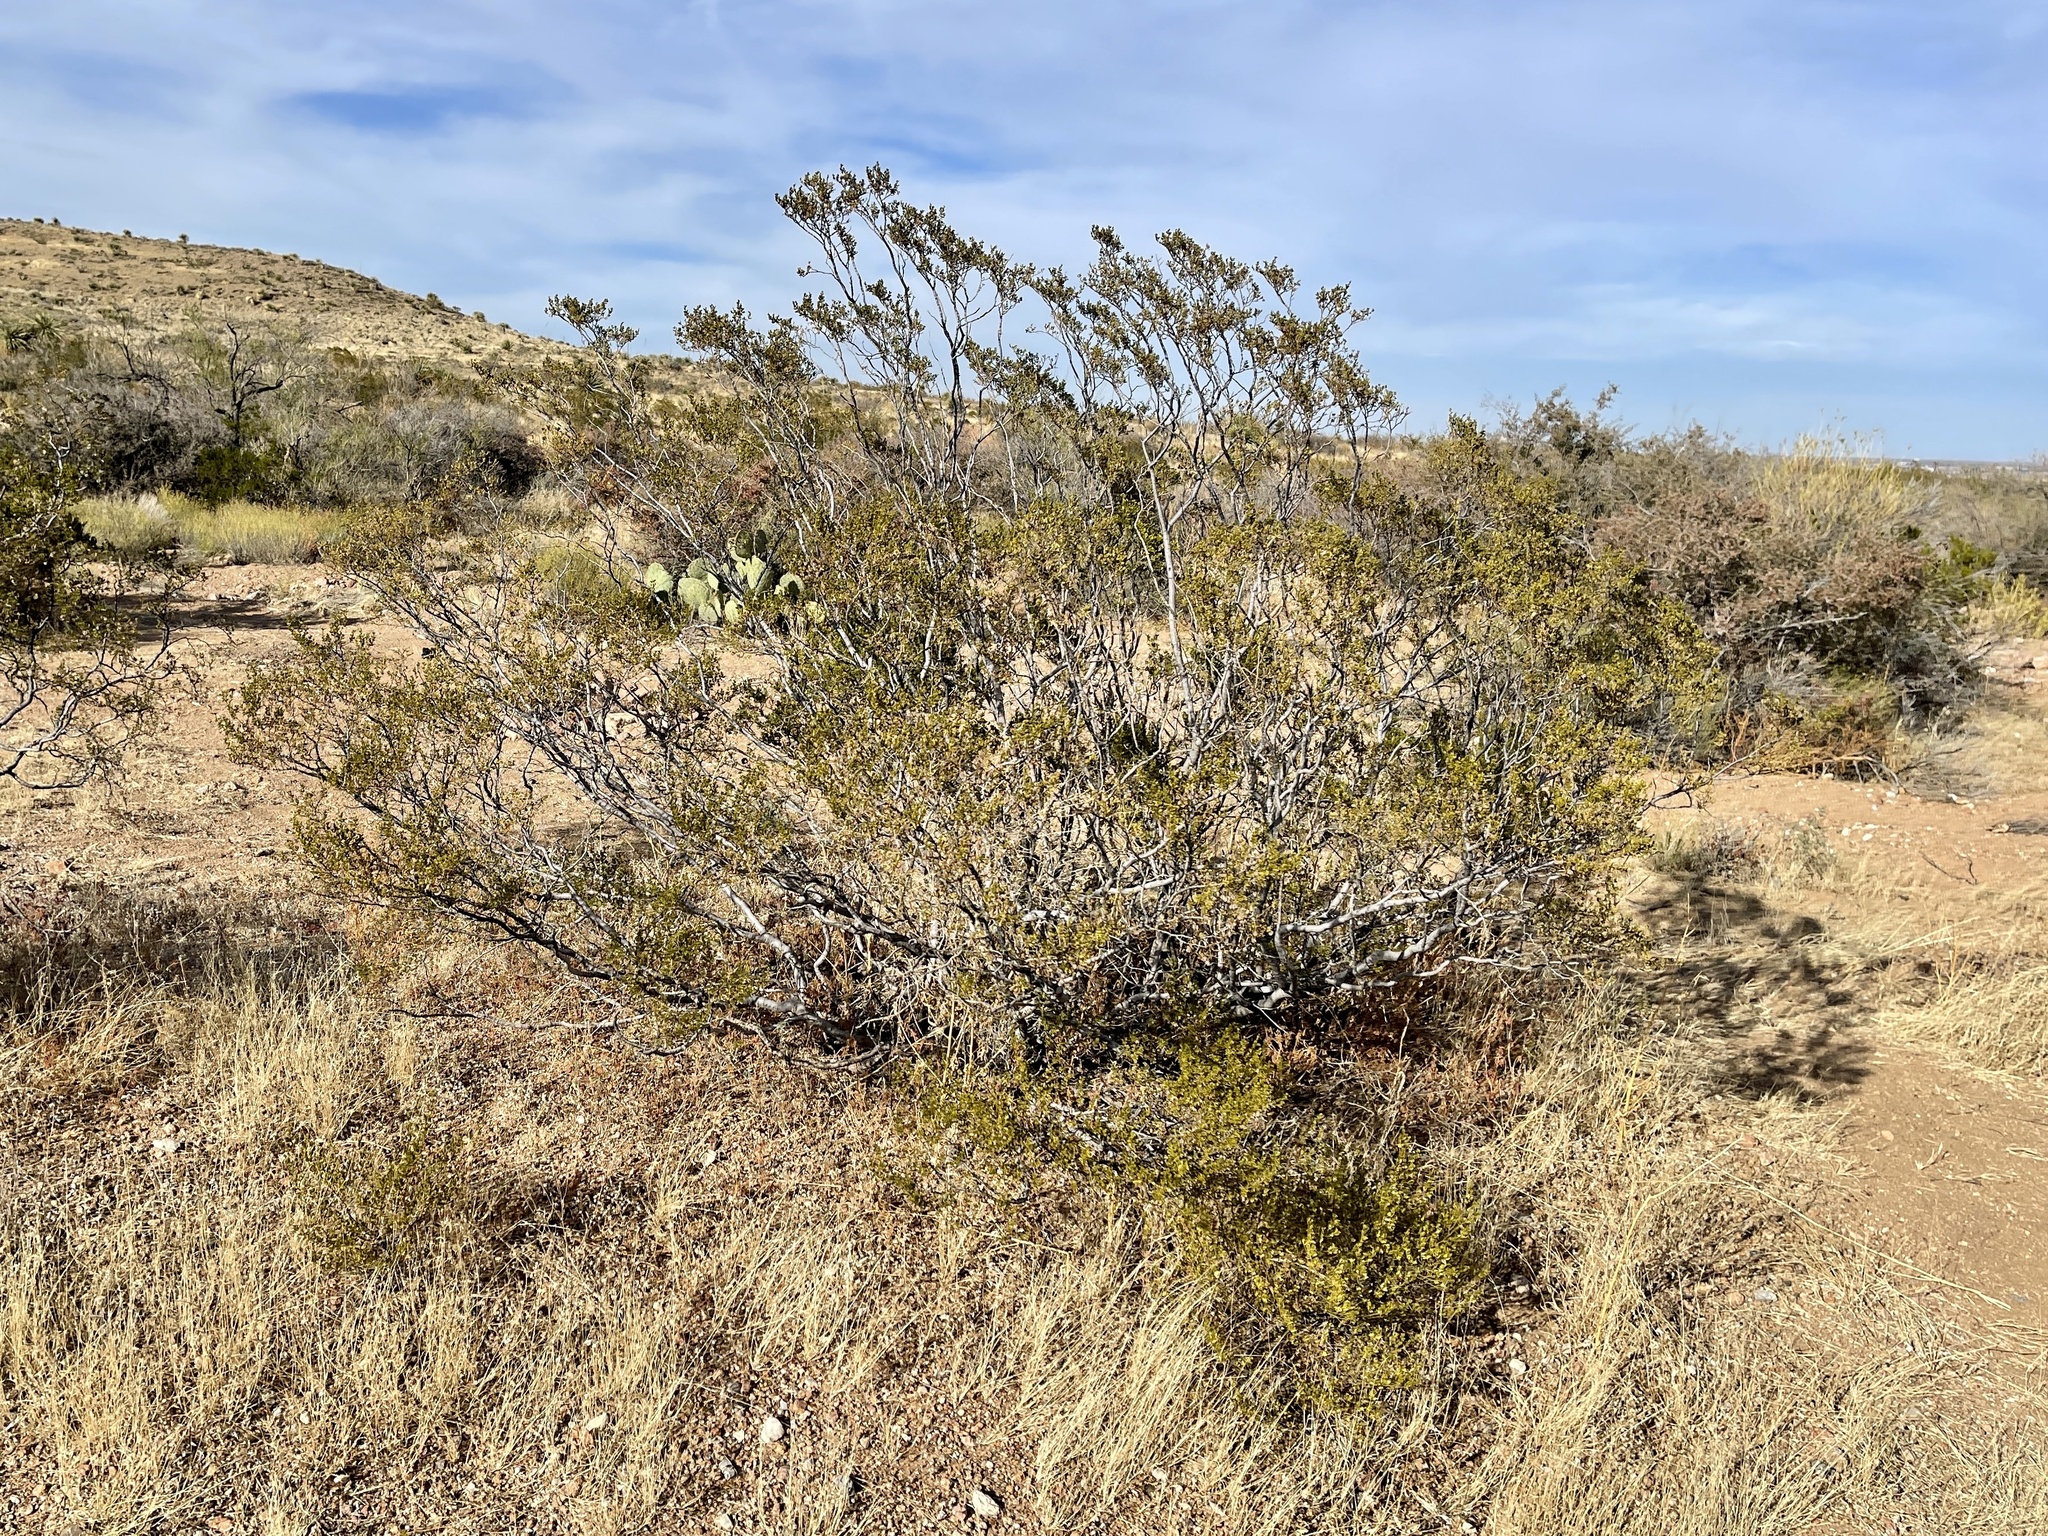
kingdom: Plantae
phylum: Tracheophyta
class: Magnoliopsida
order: Zygophyllales
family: Zygophyllaceae
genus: Larrea
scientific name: Larrea tridentata
